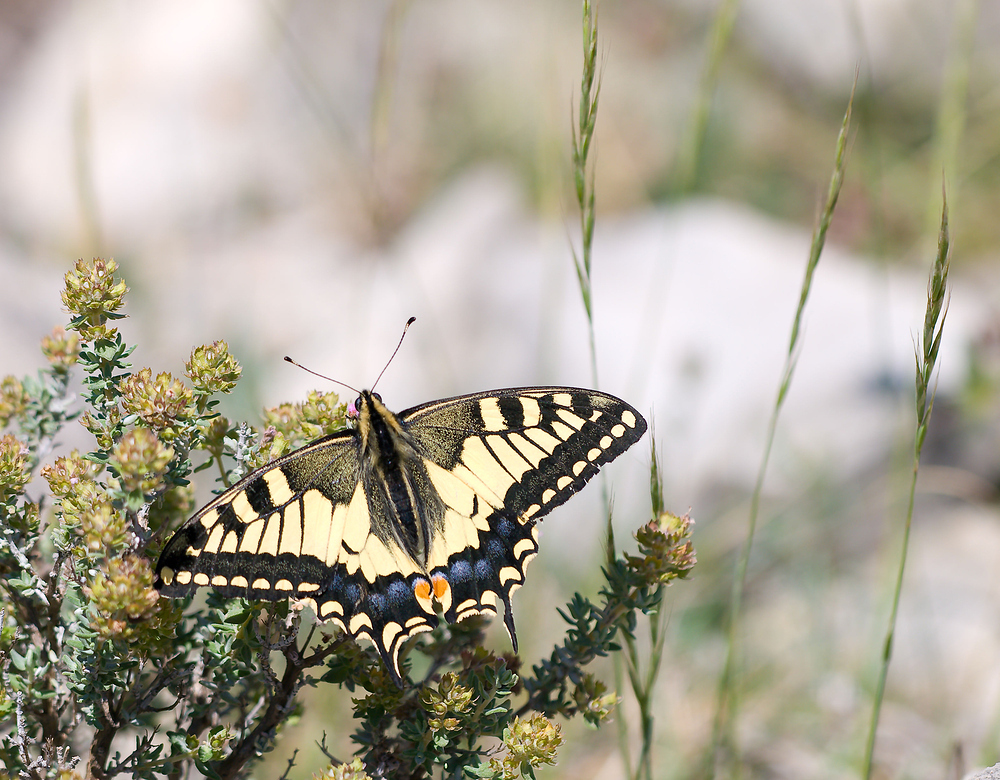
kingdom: Animalia
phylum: Arthropoda
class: Insecta
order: Lepidoptera
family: Papilionidae
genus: Papilio
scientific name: Papilio machaon
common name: Swallowtail
